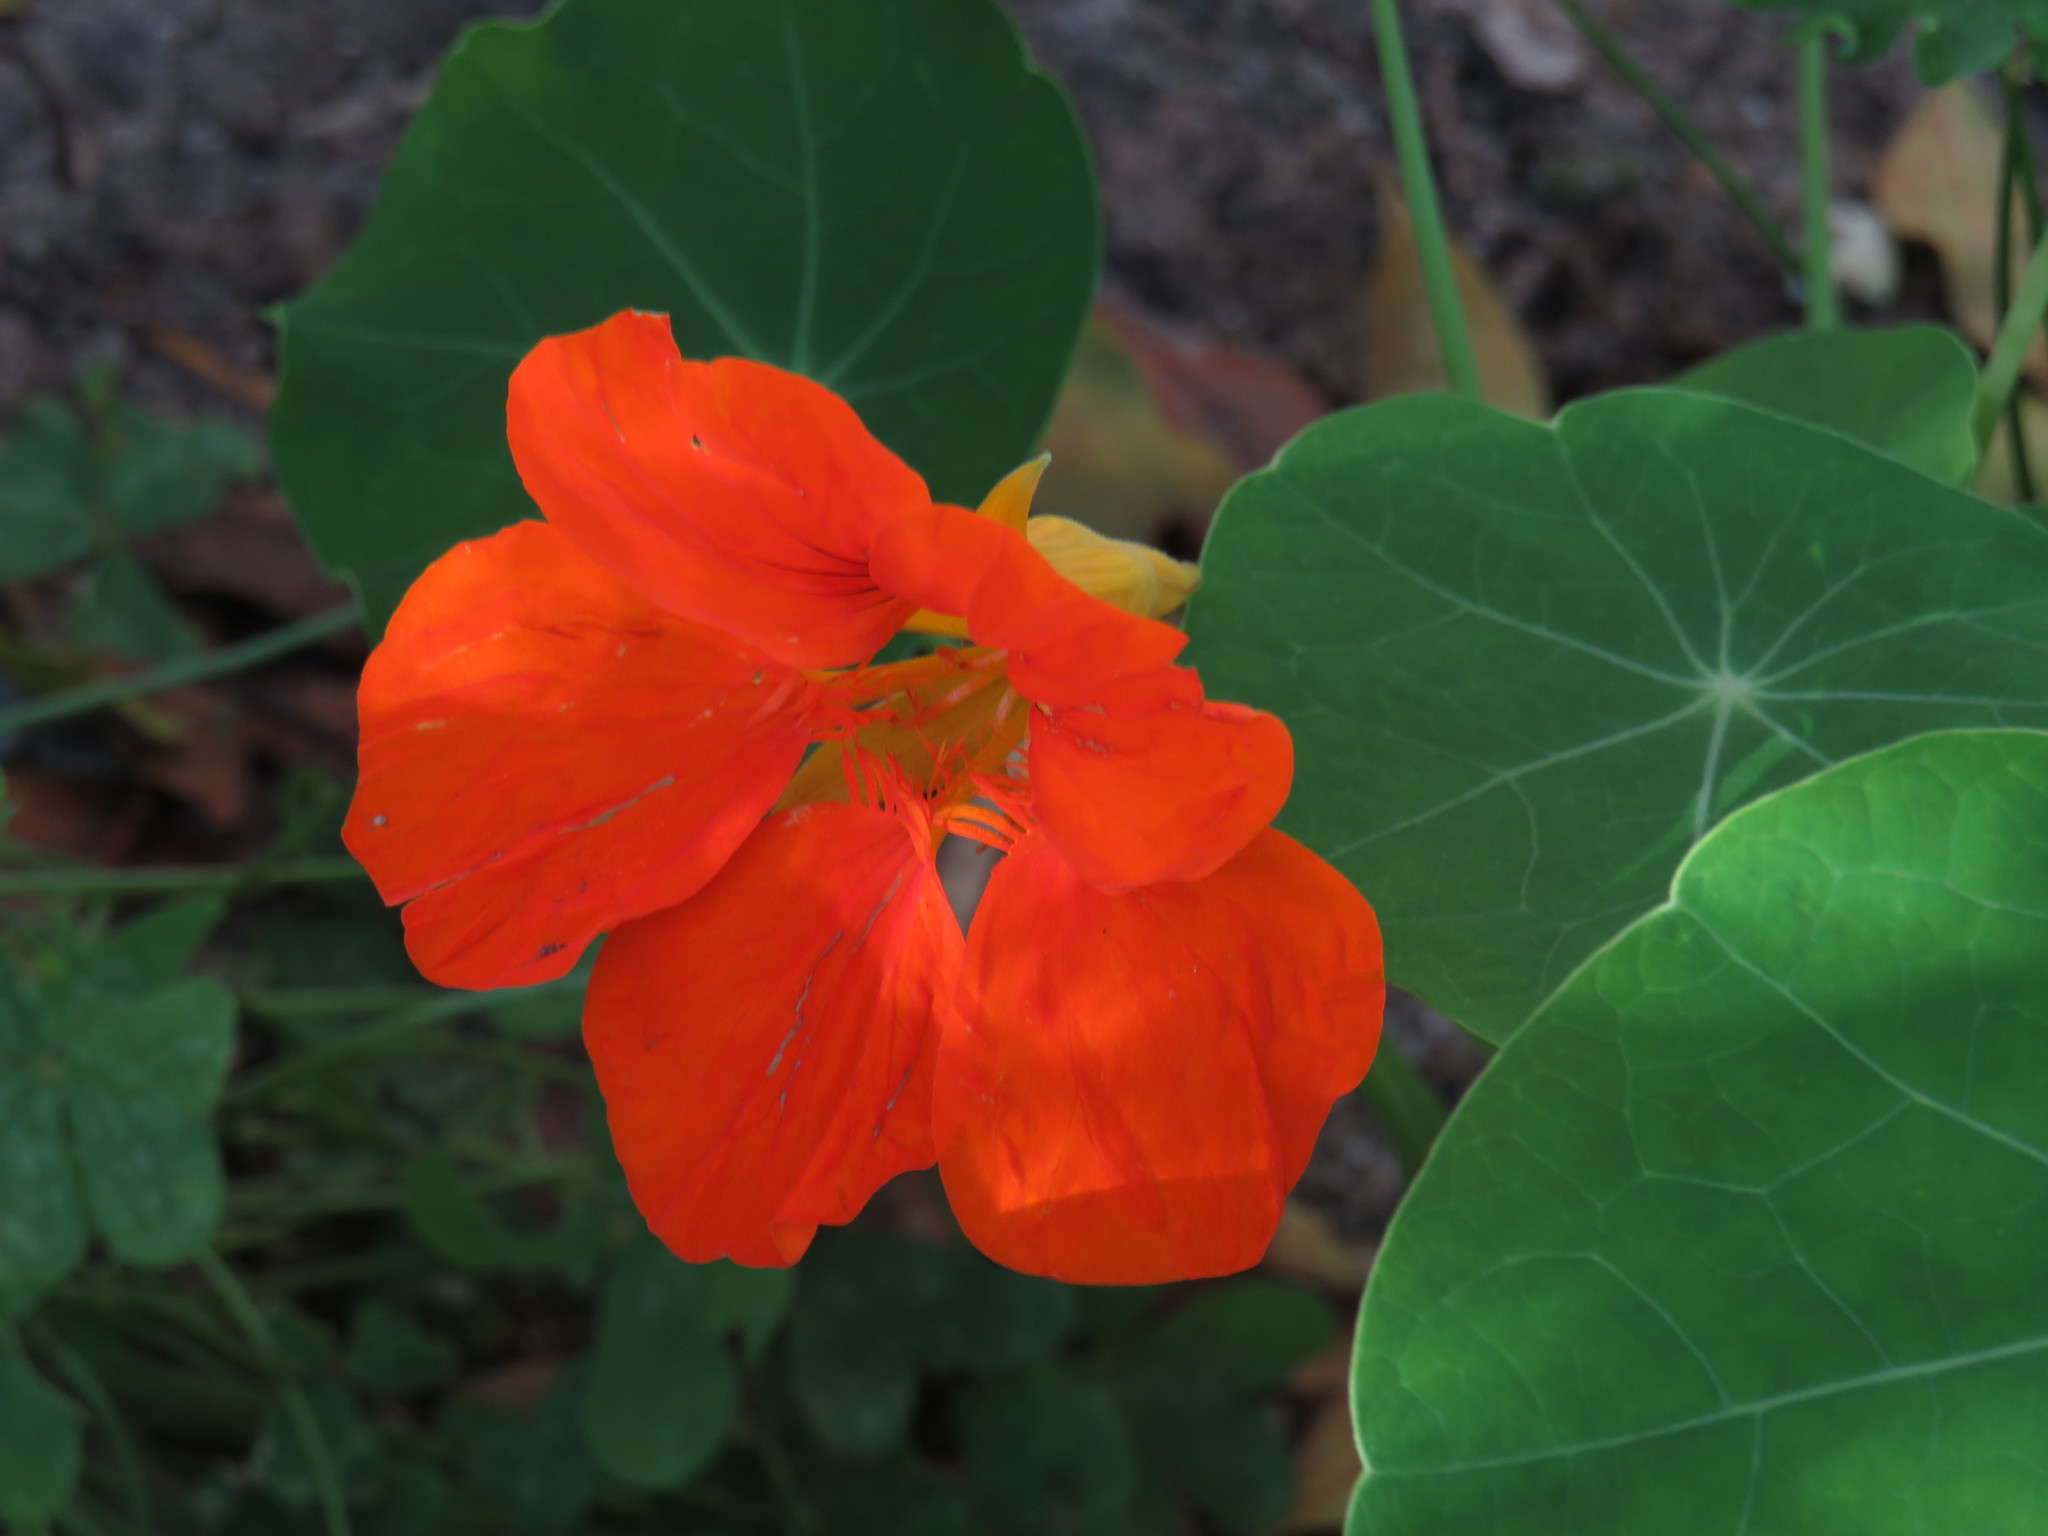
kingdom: Plantae
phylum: Tracheophyta
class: Magnoliopsida
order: Brassicales
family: Tropaeolaceae
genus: Tropaeolum
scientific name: Tropaeolum majus
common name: Nasturtium
